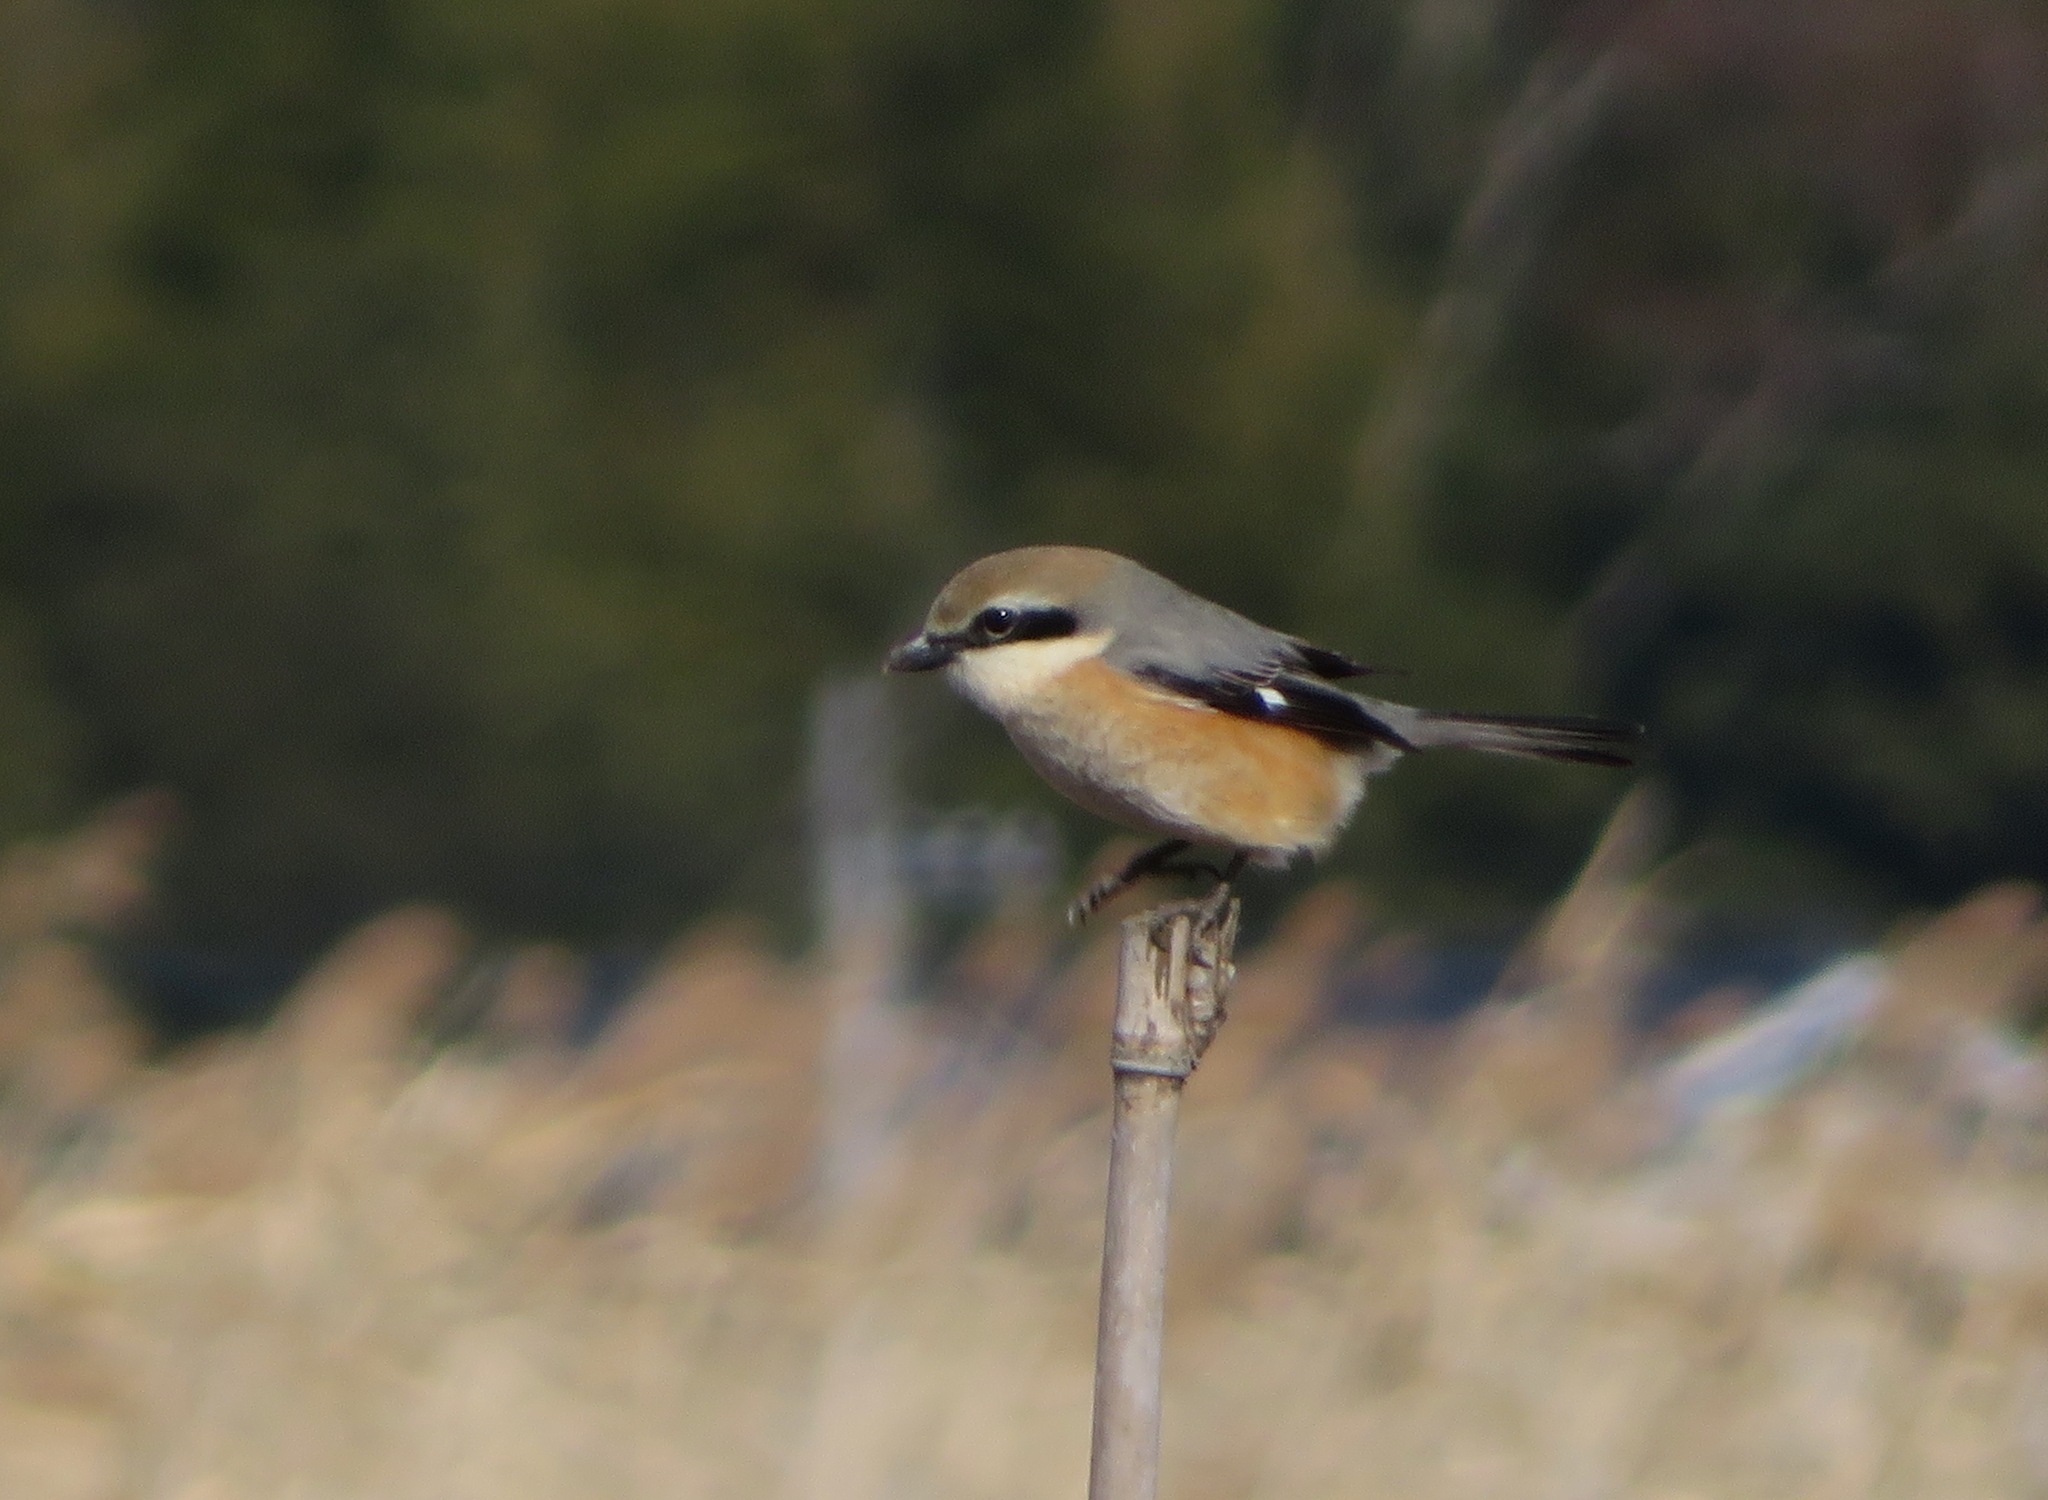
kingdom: Animalia
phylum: Chordata
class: Aves
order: Passeriformes
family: Laniidae
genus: Lanius
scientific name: Lanius bucephalus
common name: Bull-headed shrike
